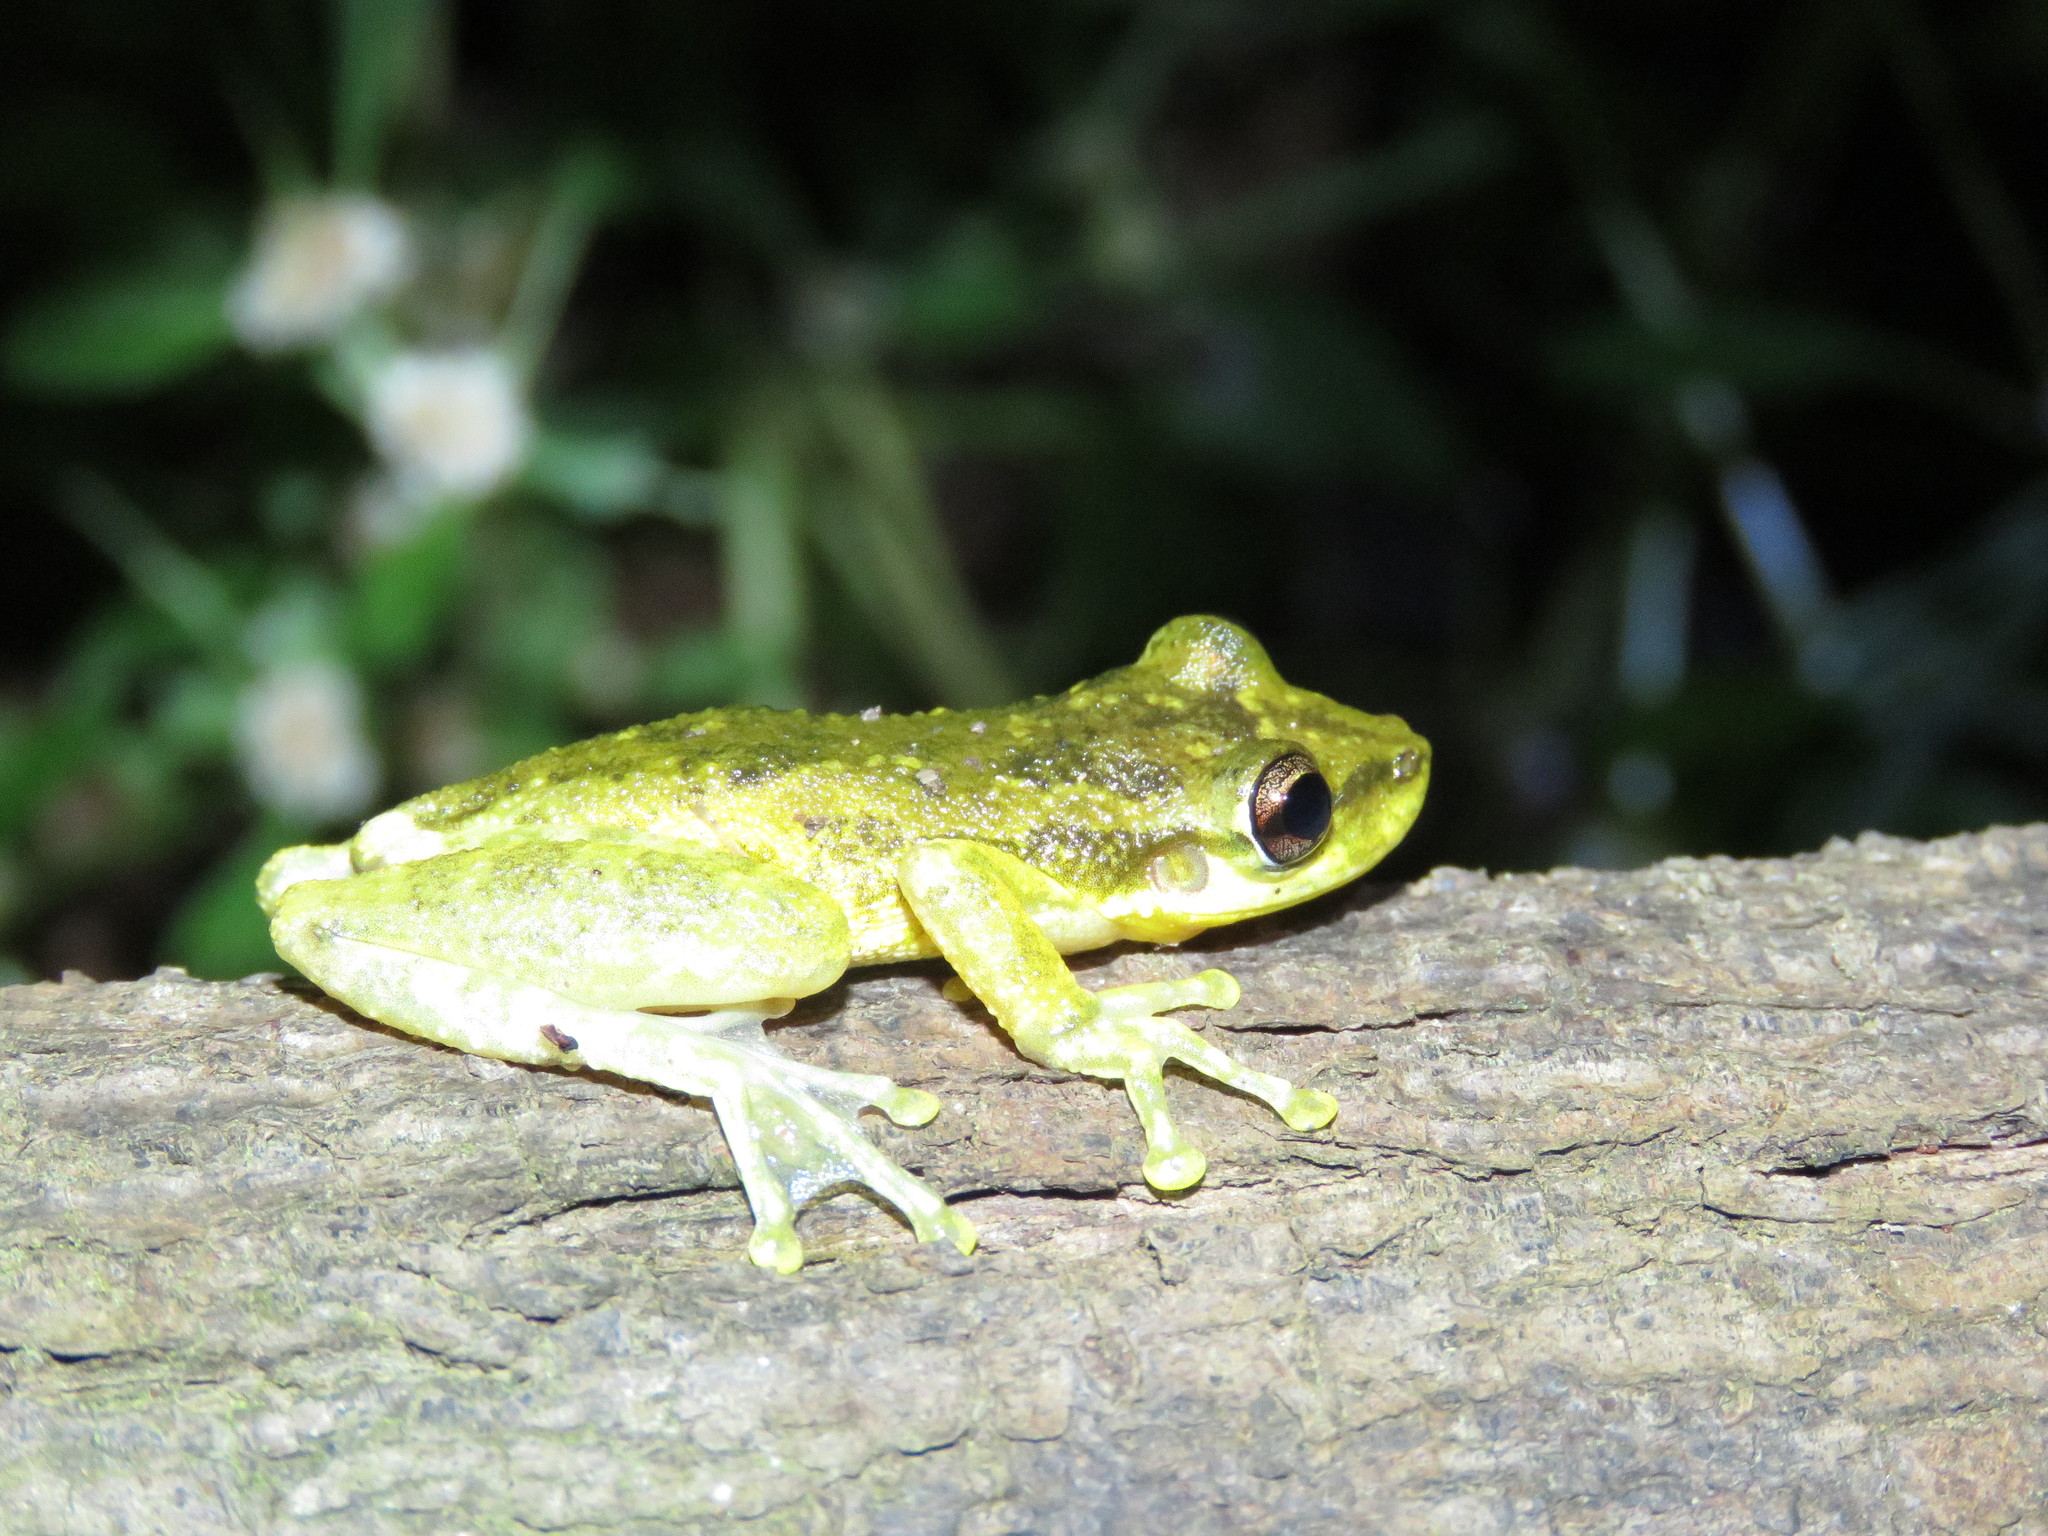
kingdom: Animalia
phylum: Chordata
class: Amphibia
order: Anura
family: Hylidae
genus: Scinax
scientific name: Scinax ruber
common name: Red snouted treefrog
